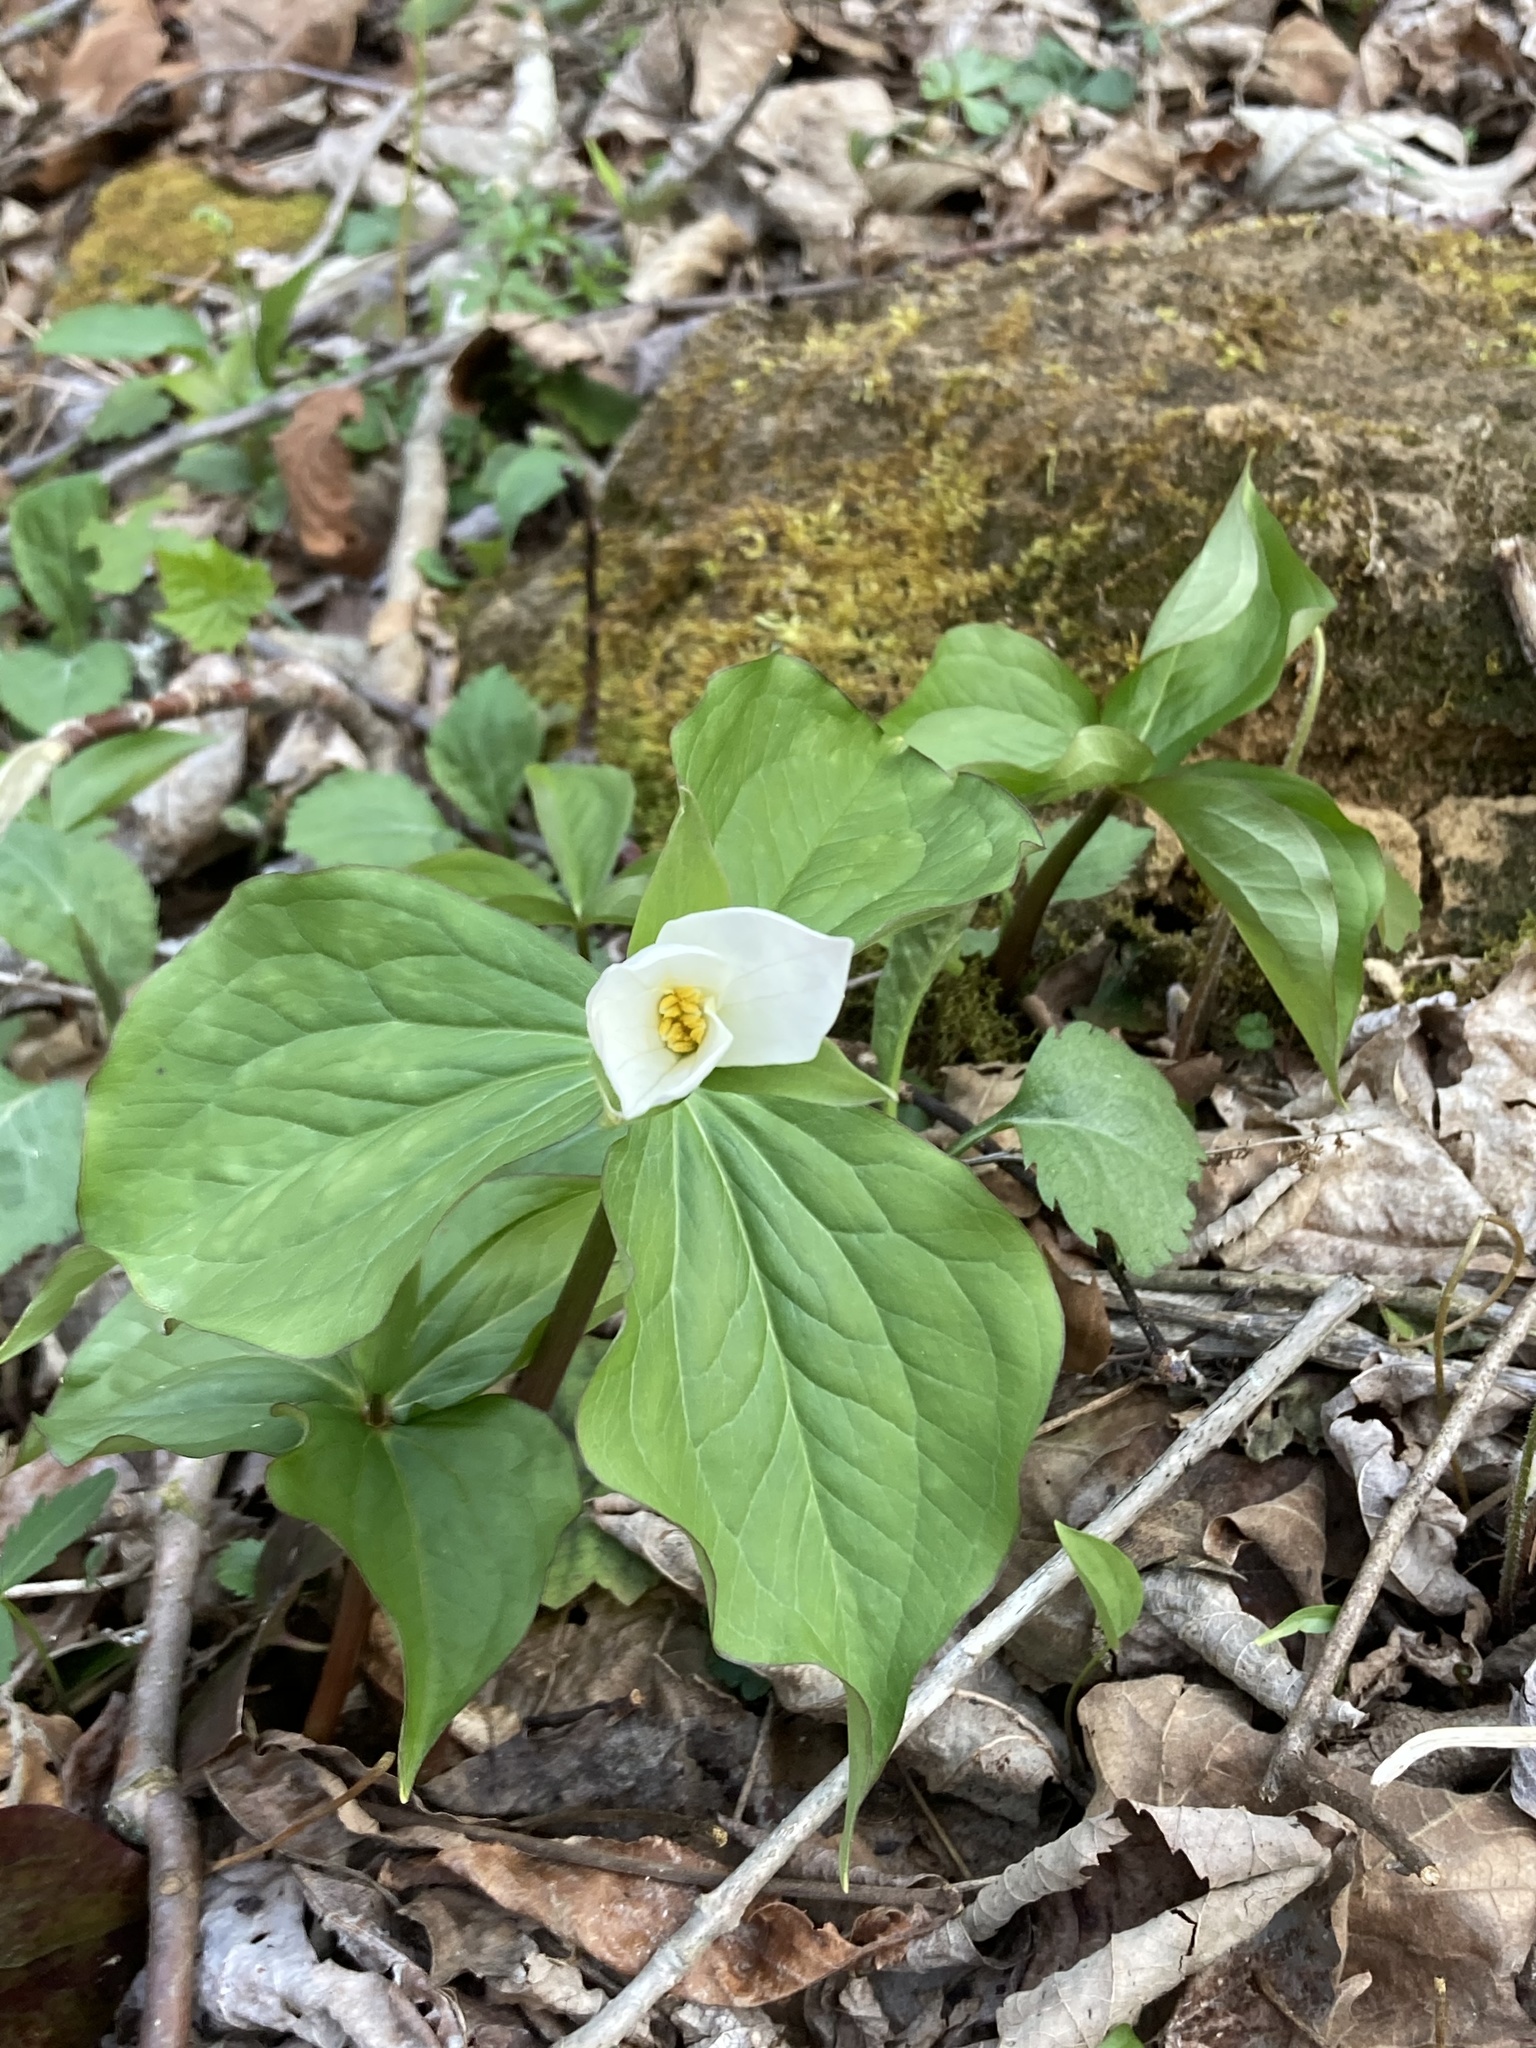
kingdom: Plantae
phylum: Tracheophyta
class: Liliopsida
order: Liliales
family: Melanthiaceae
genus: Trillium
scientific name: Trillium grandiflorum
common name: Great white trillium
